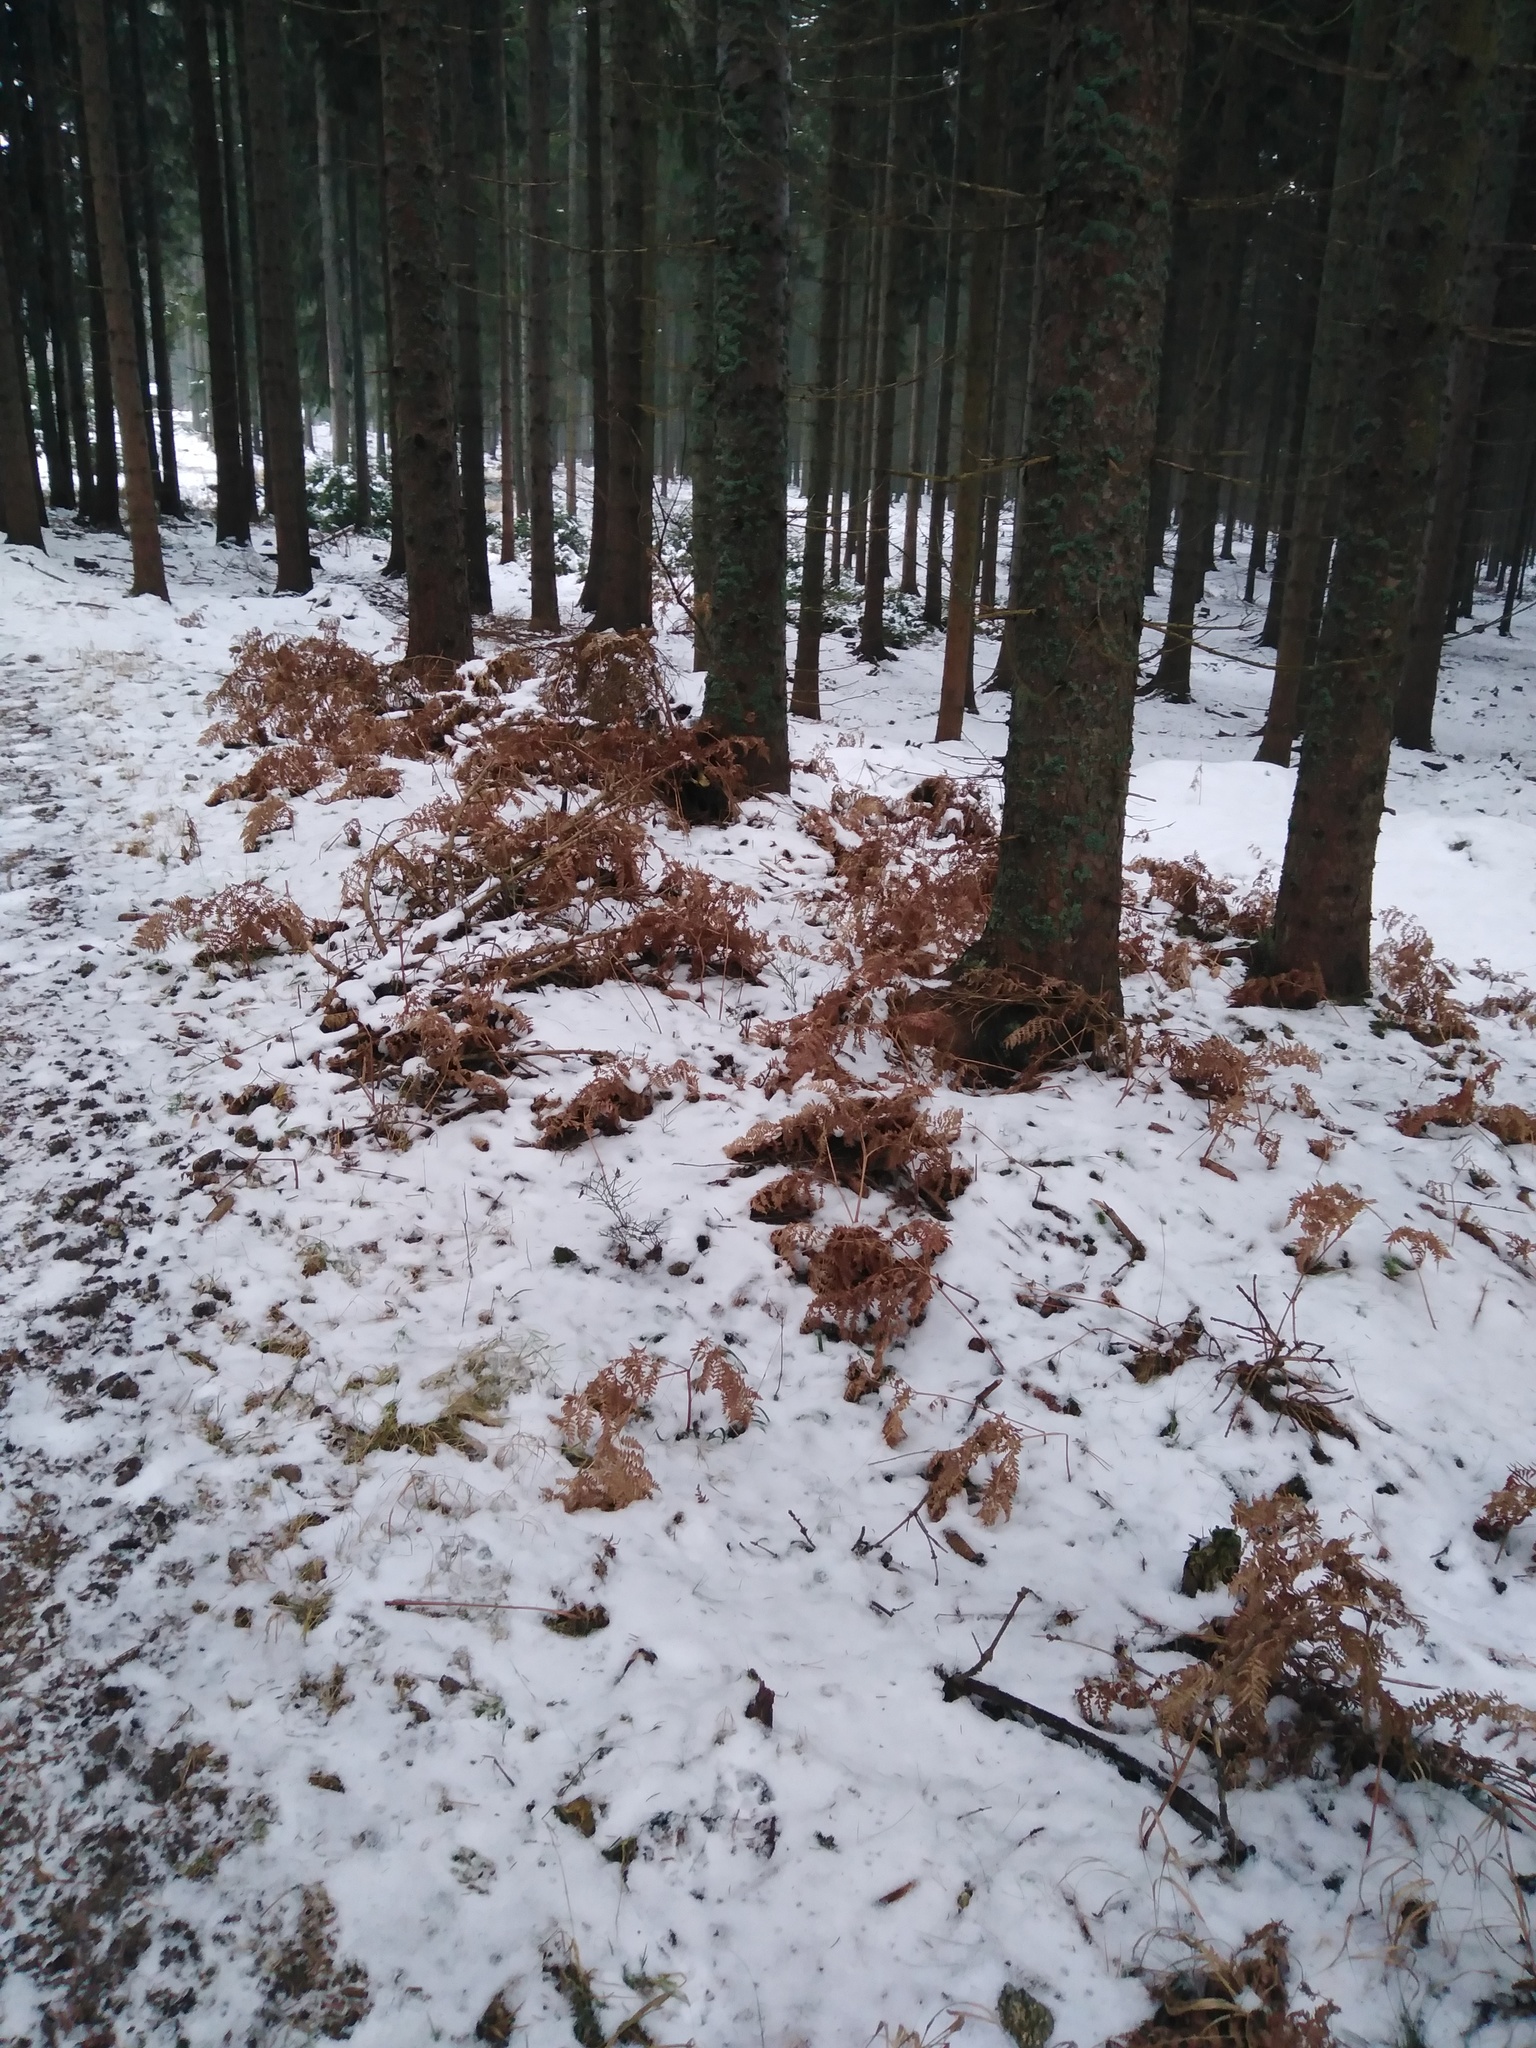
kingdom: Plantae
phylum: Tracheophyta
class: Polypodiopsida
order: Polypodiales
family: Dennstaedtiaceae
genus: Pteridium
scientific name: Pteridium aquilinum
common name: Bracken
